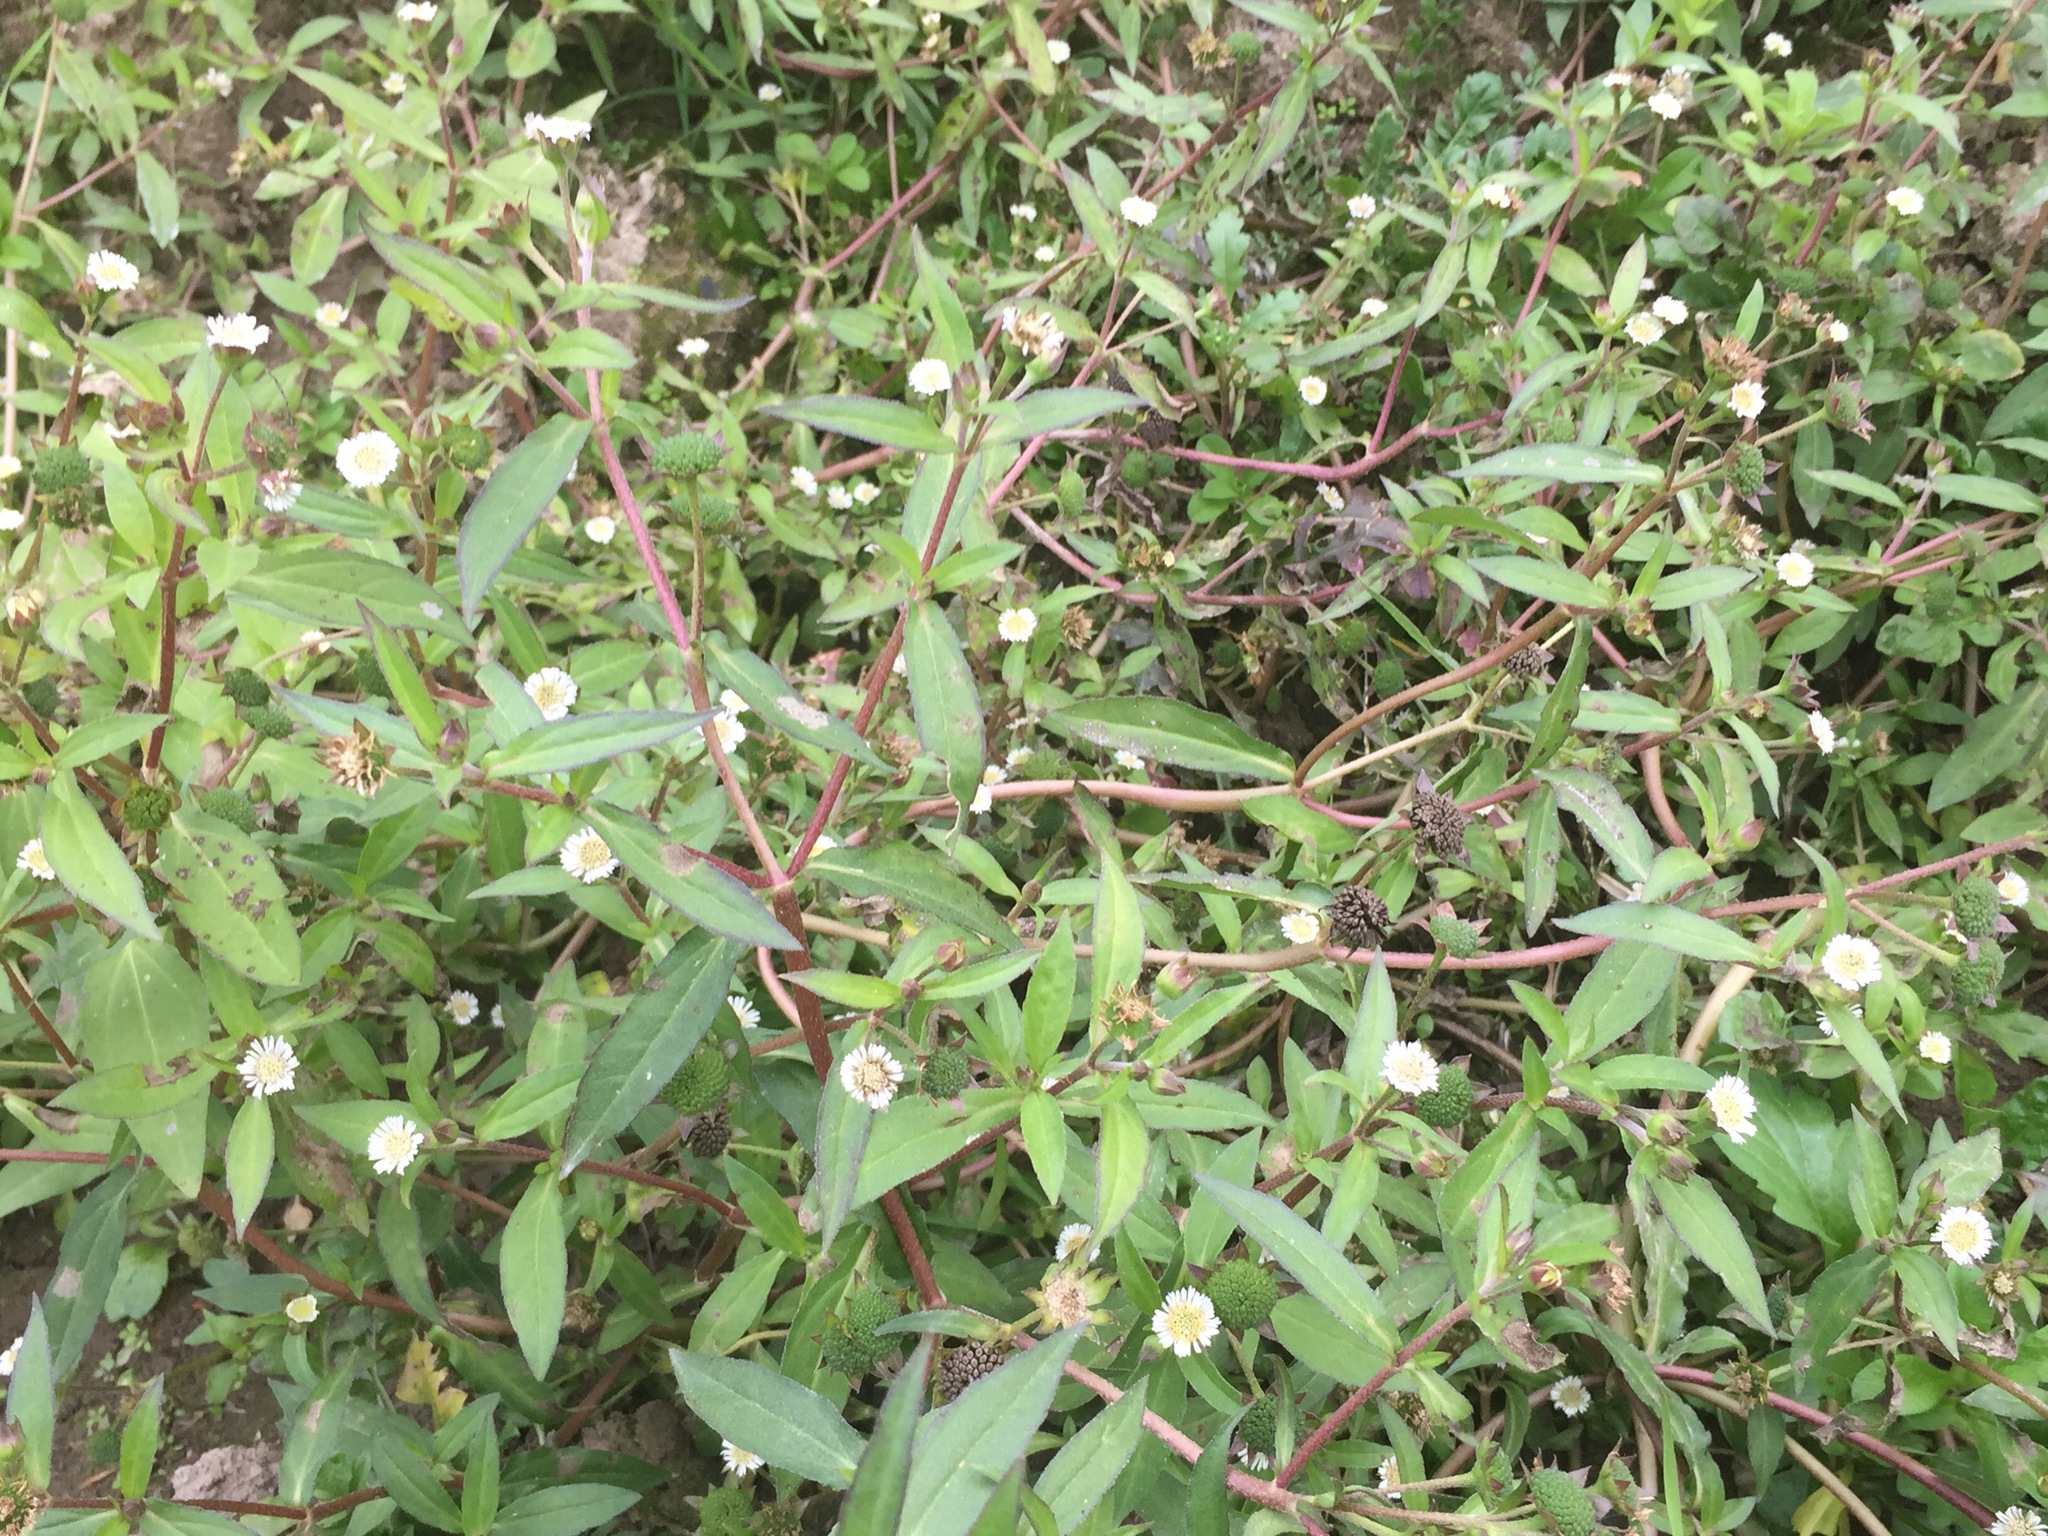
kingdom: Plantae
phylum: Tracheophyta
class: Magnoliopsida
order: Asterales
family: Asteraceae
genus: Eclipta
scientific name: Eclipta prostrata
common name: False daisy
